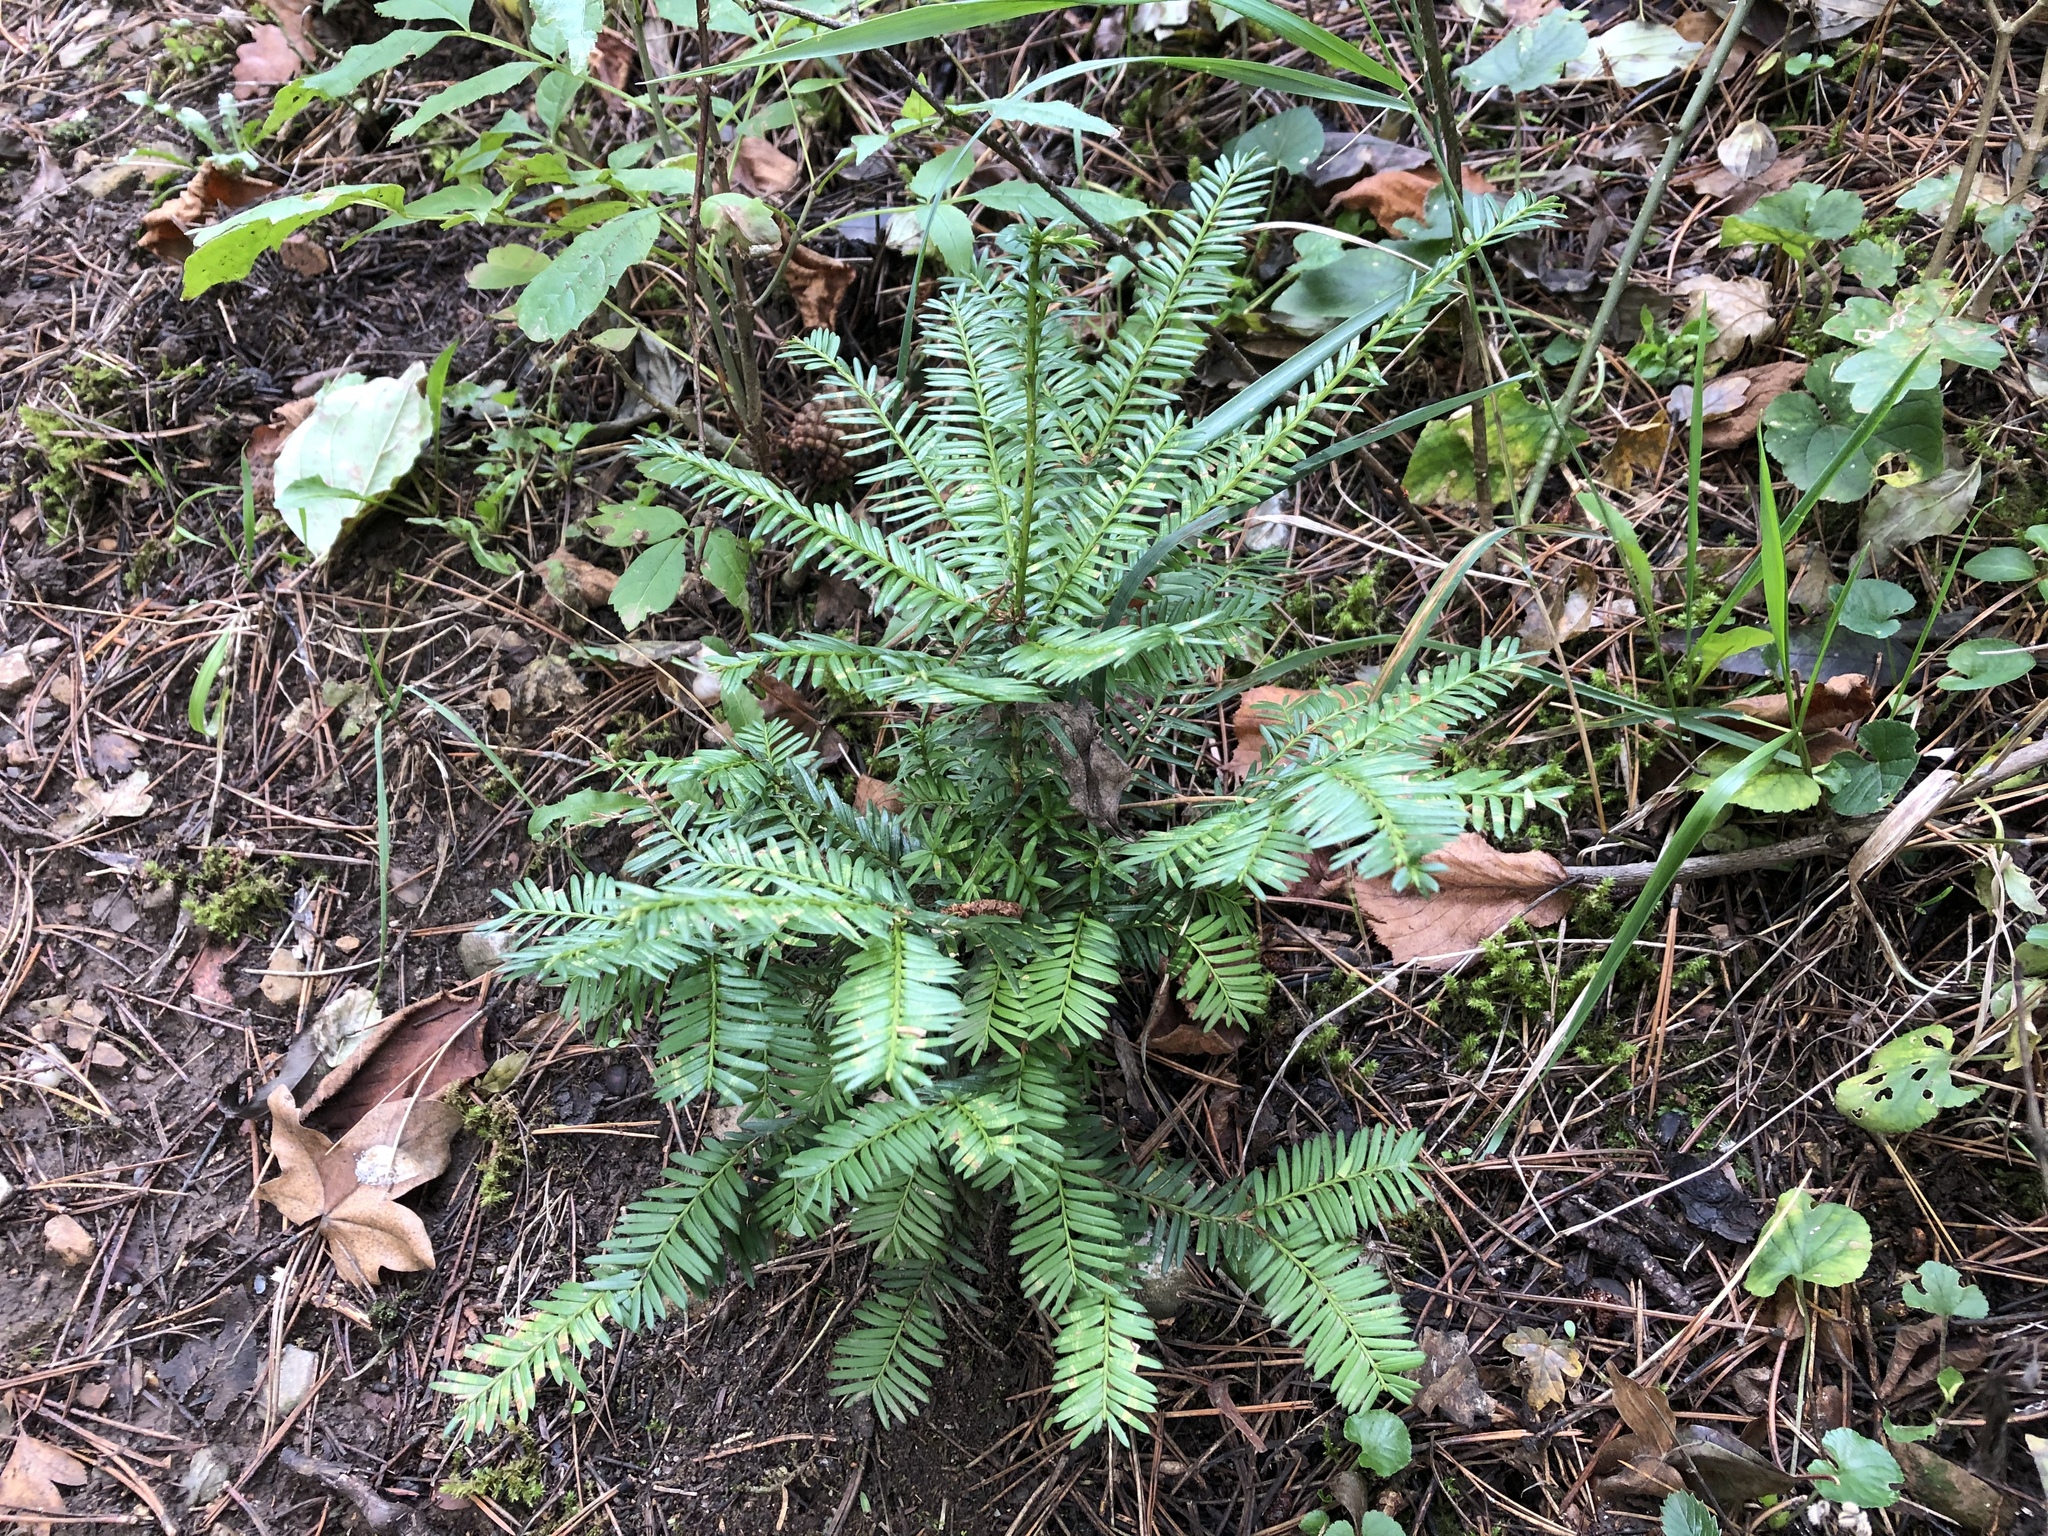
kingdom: Plantae
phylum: Tracheophyta
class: Pinopsida
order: Pinales
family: Taxaceae
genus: Taxus
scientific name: Taxus baccata
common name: Yew
